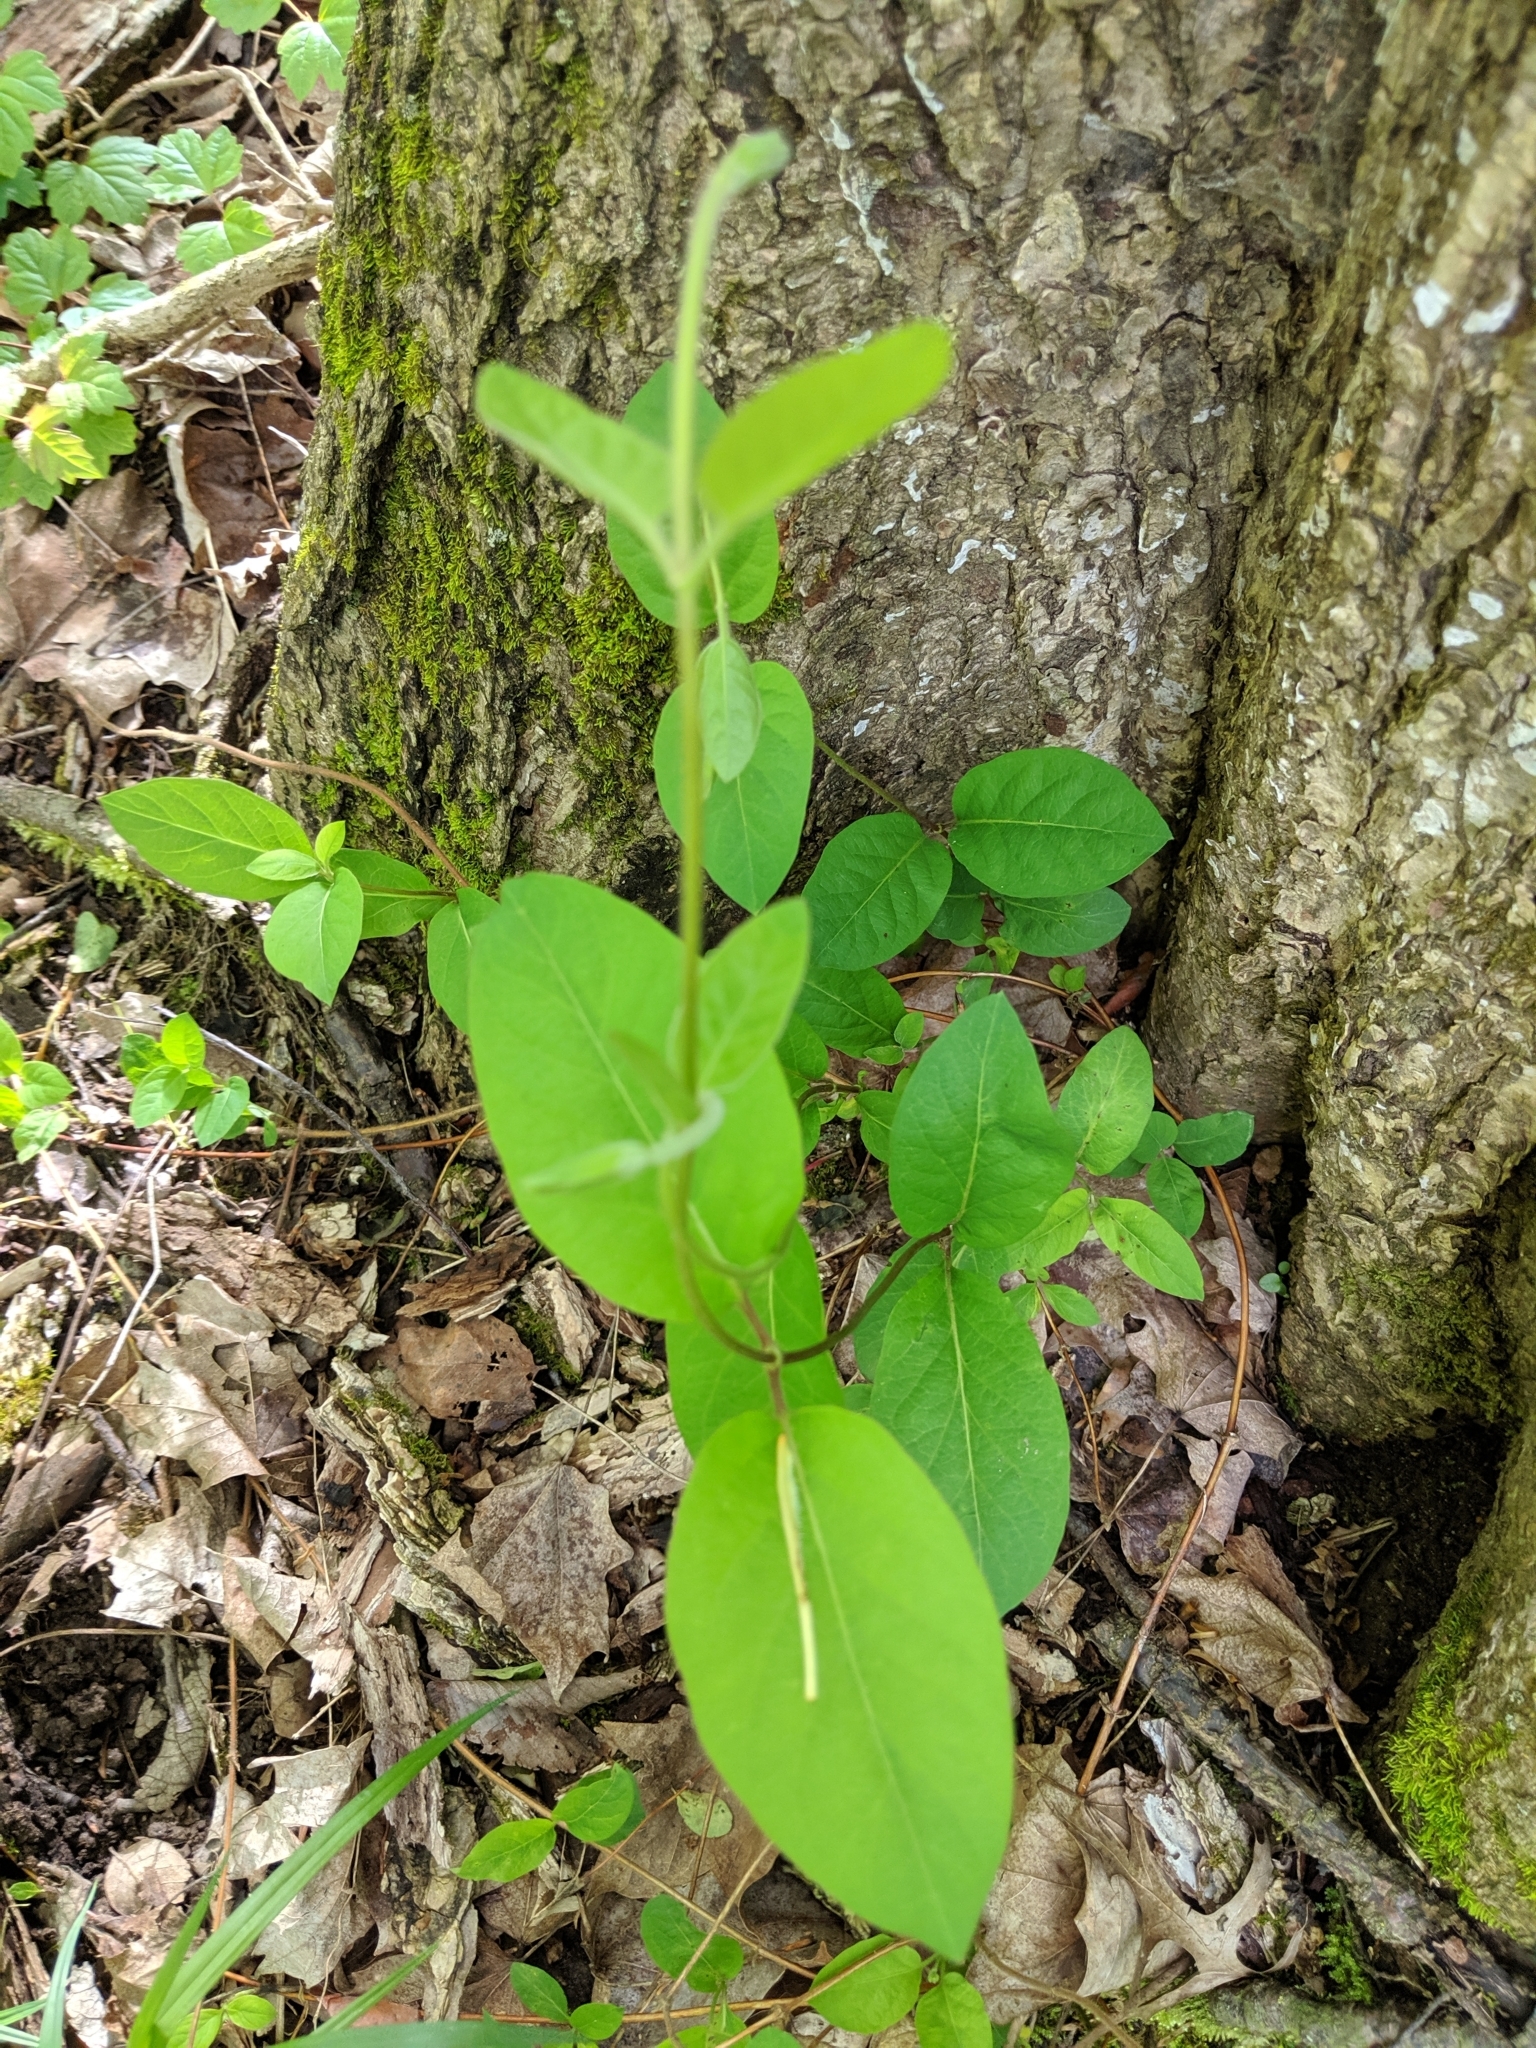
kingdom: Plantae
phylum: Tracheophyta
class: Magnoliopsida
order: Dipsacales
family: Caprifoliaceae
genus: Lonicera
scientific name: Lonicera japonica
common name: Japanese honeysuckle
